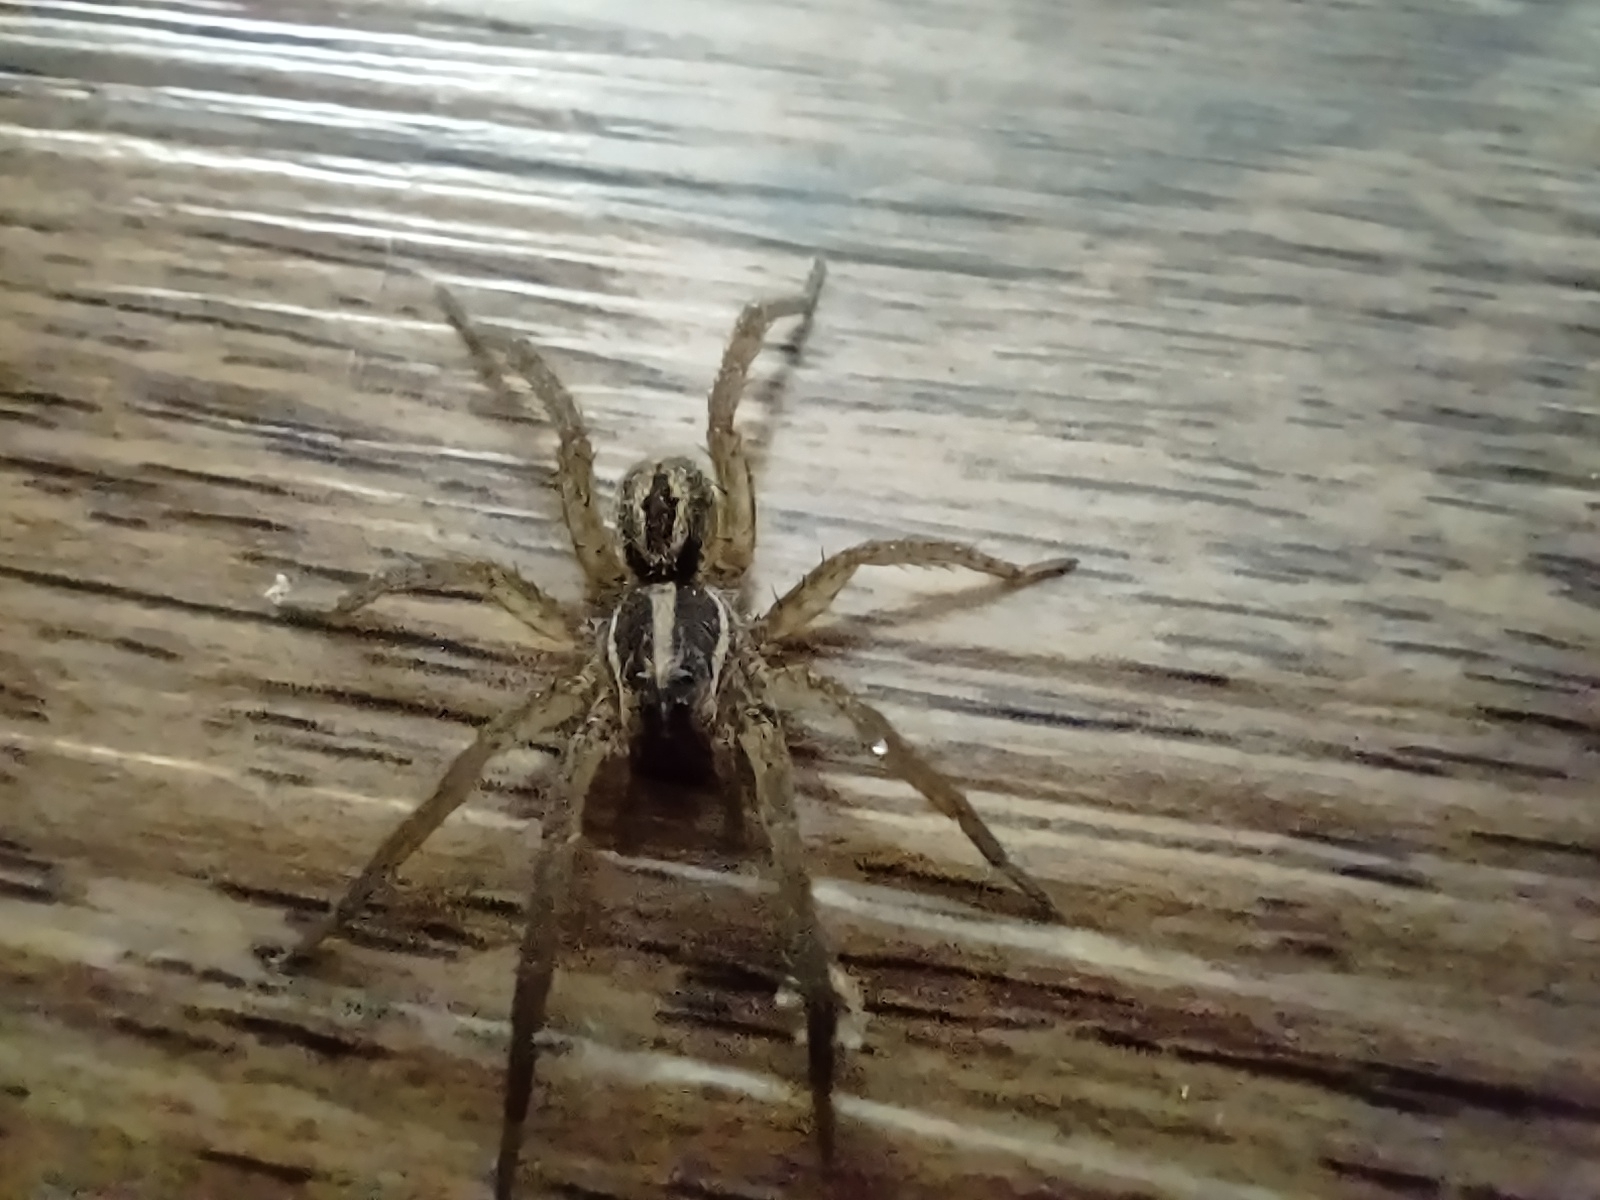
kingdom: Animalia
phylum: Arthropoda
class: Arachnida
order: Araneae
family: Lycosidae
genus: Tigrosa
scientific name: Tigrosa annexa
